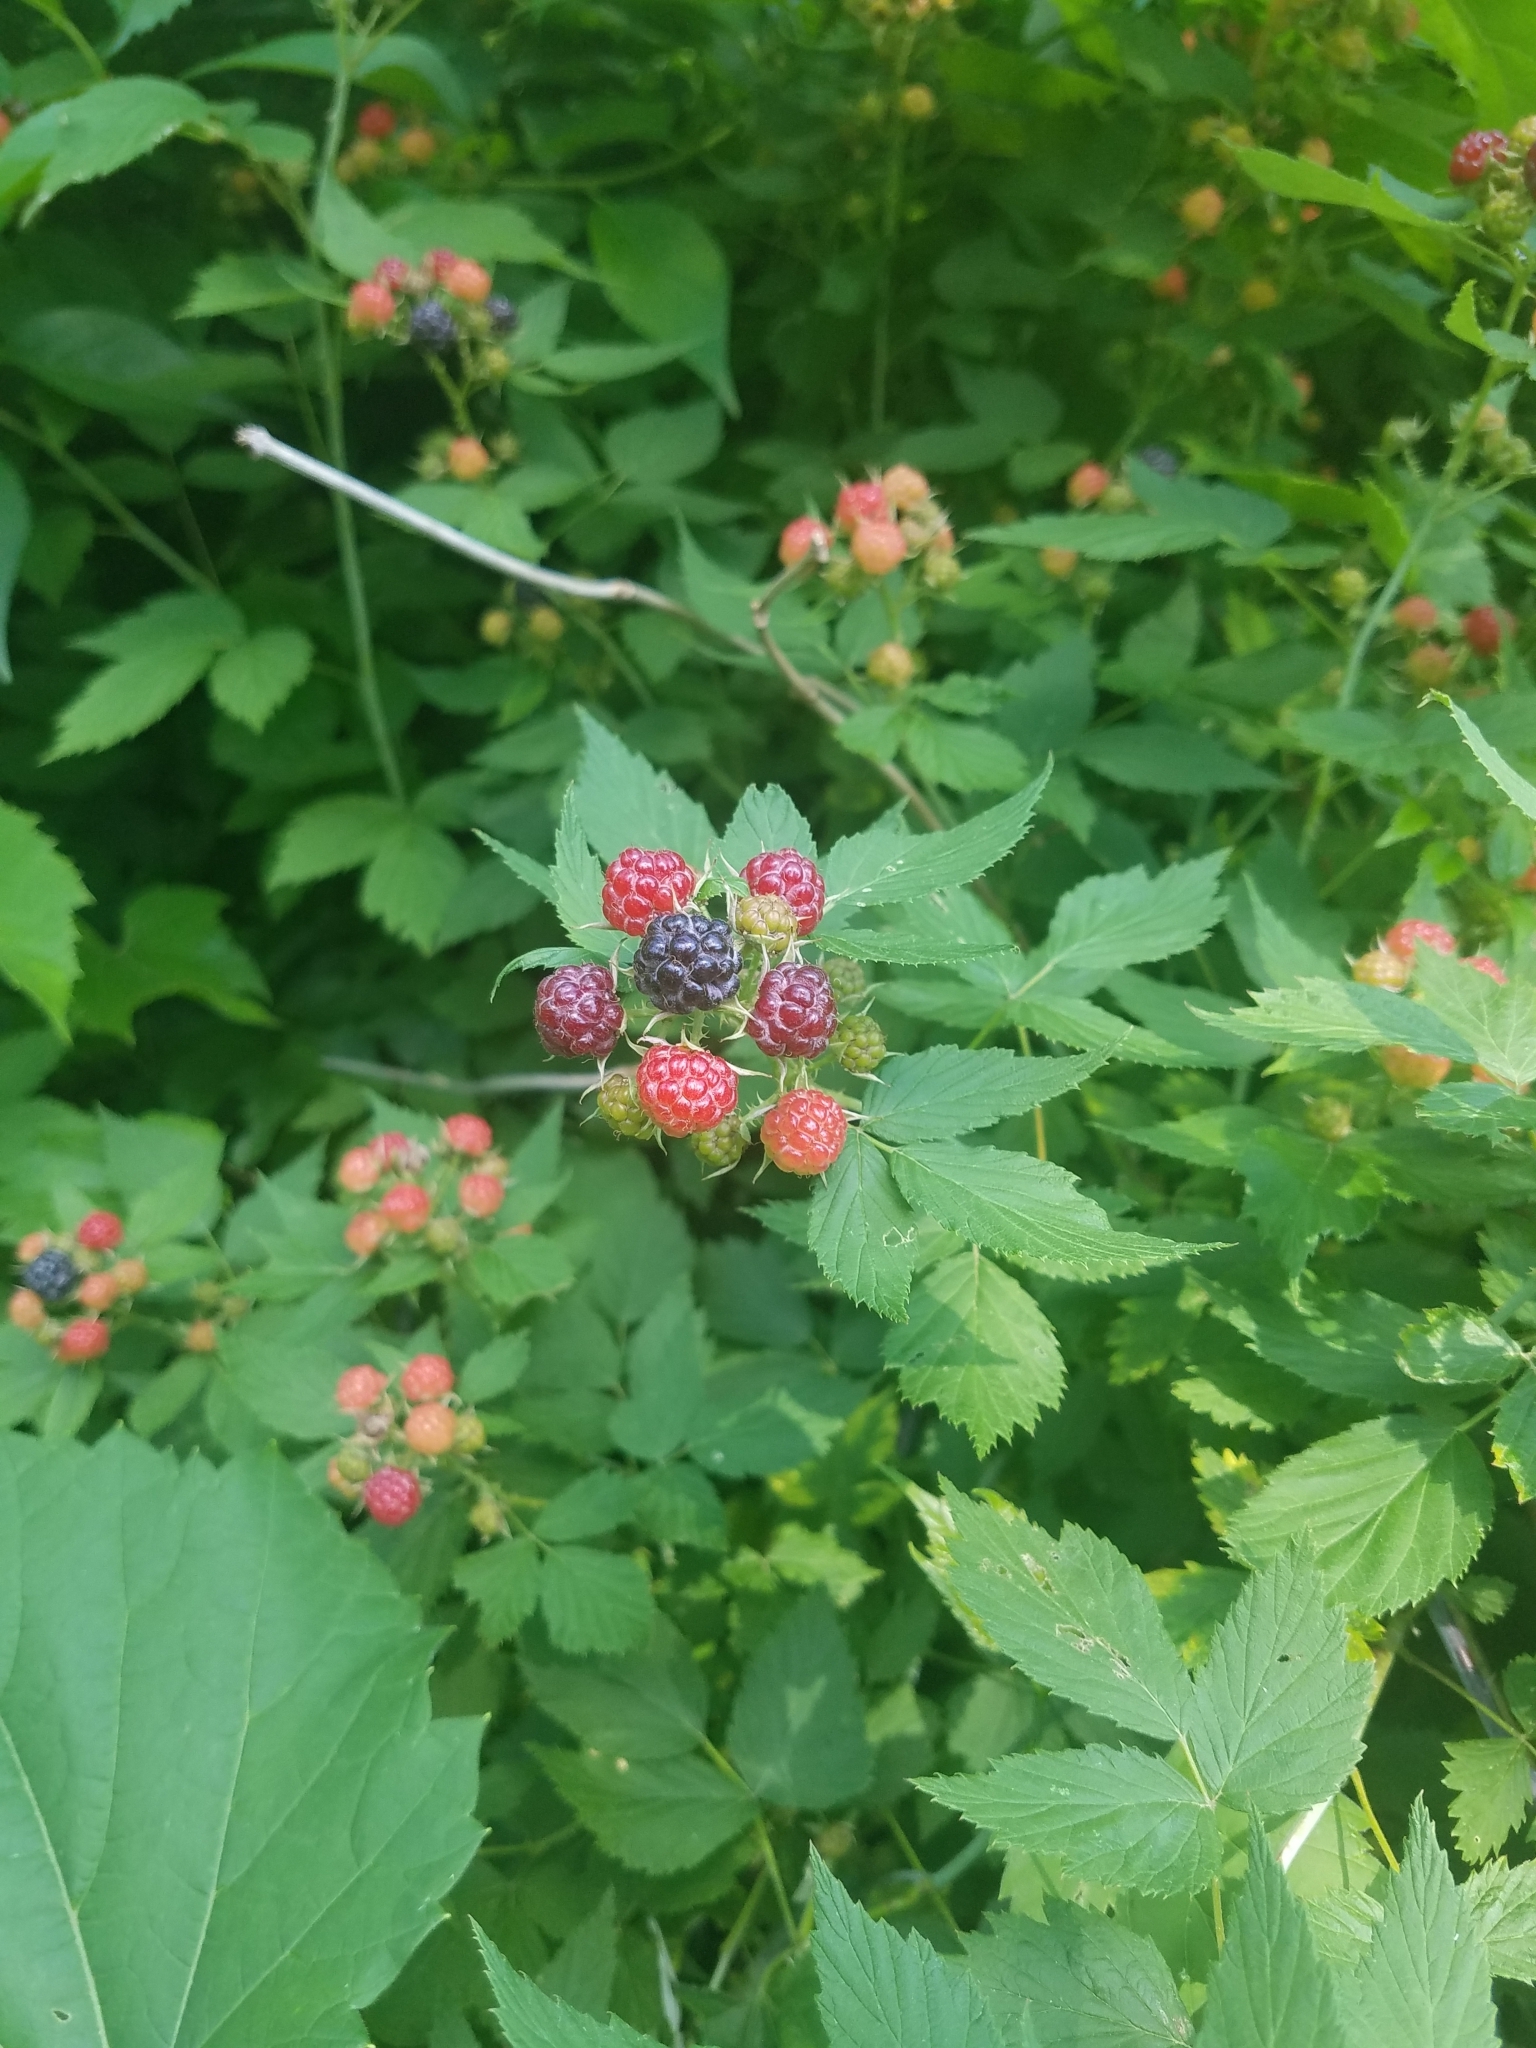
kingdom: Plantae
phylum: Tracheophyta
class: Magnoliopsida
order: Rosales
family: Rosaceae
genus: Rubus
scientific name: Rubus occidentalis
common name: Black raspberry
